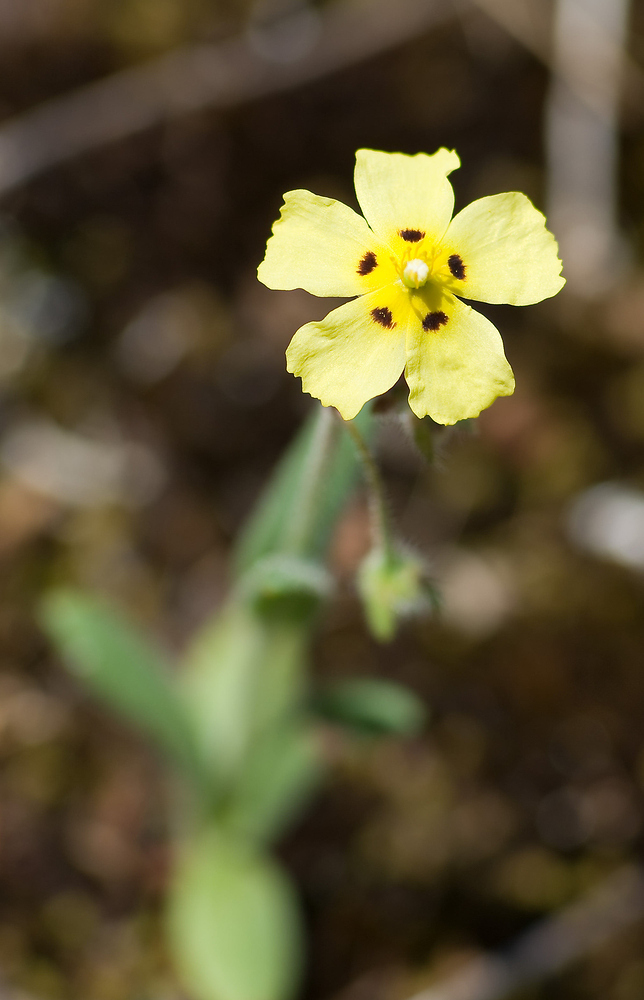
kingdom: Plantae
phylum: Tracheophyta
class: Magnoliopsida
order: Malvales
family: Cistaceae
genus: Tuberaria
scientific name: Tuberaria guttata
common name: Spotted rock-rose
